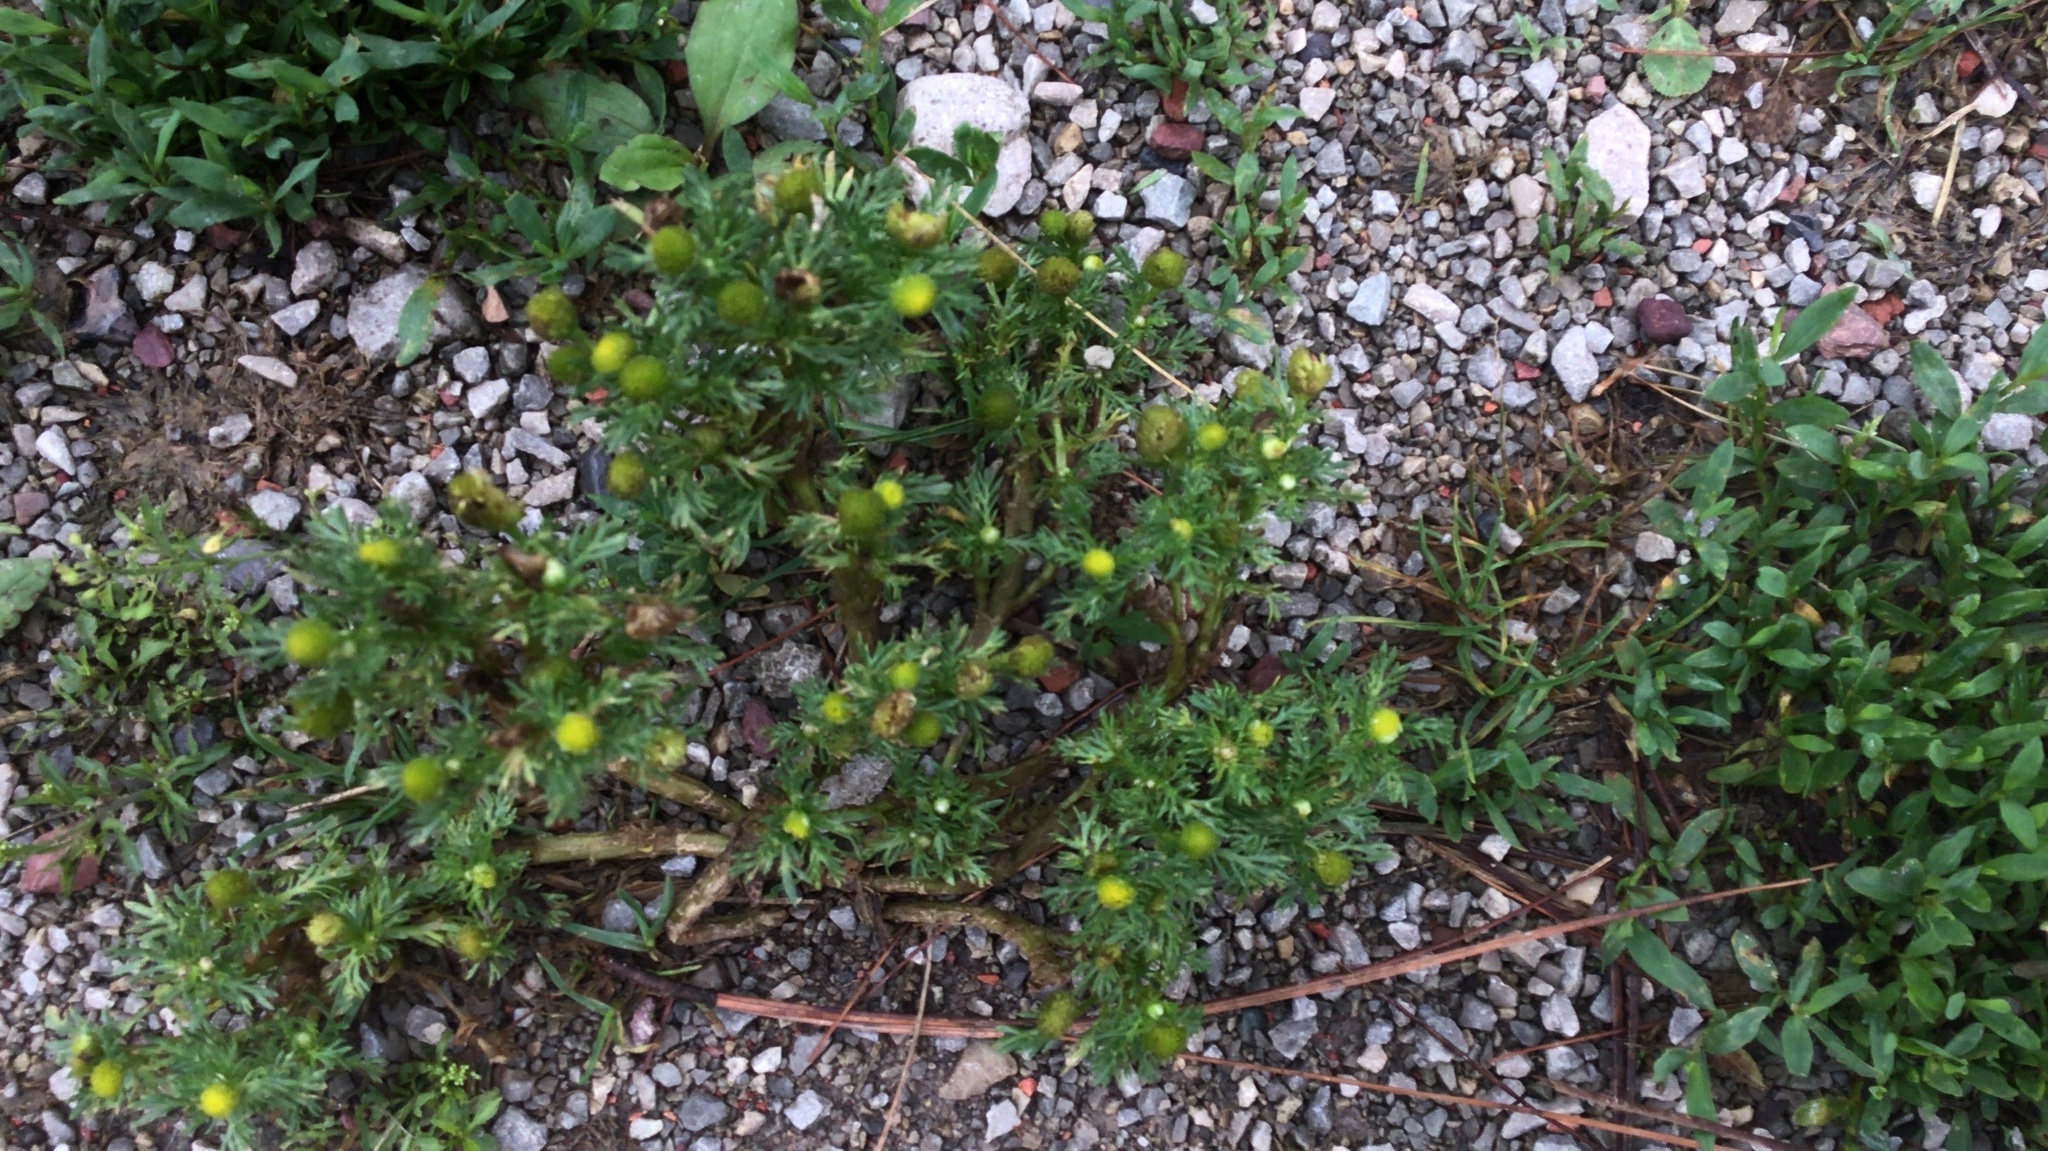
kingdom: Plantae
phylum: Tracheophyta
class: Magnoliopsida
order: Asterales
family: Asteraceae
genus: Matricaria
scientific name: Matricaria discoidea
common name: Disc mayweed
